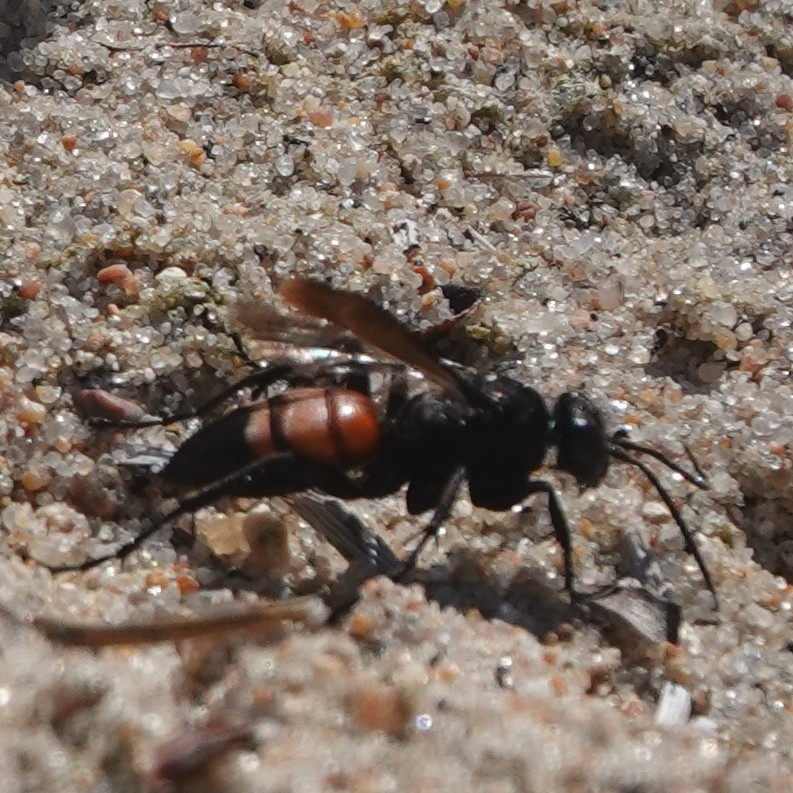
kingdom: Animalia
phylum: Arthropoda
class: Insecta
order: Hymenoptera
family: Pompilidae
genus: Anoplius
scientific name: Anoplius viaticus
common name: Black banded spider wasp
